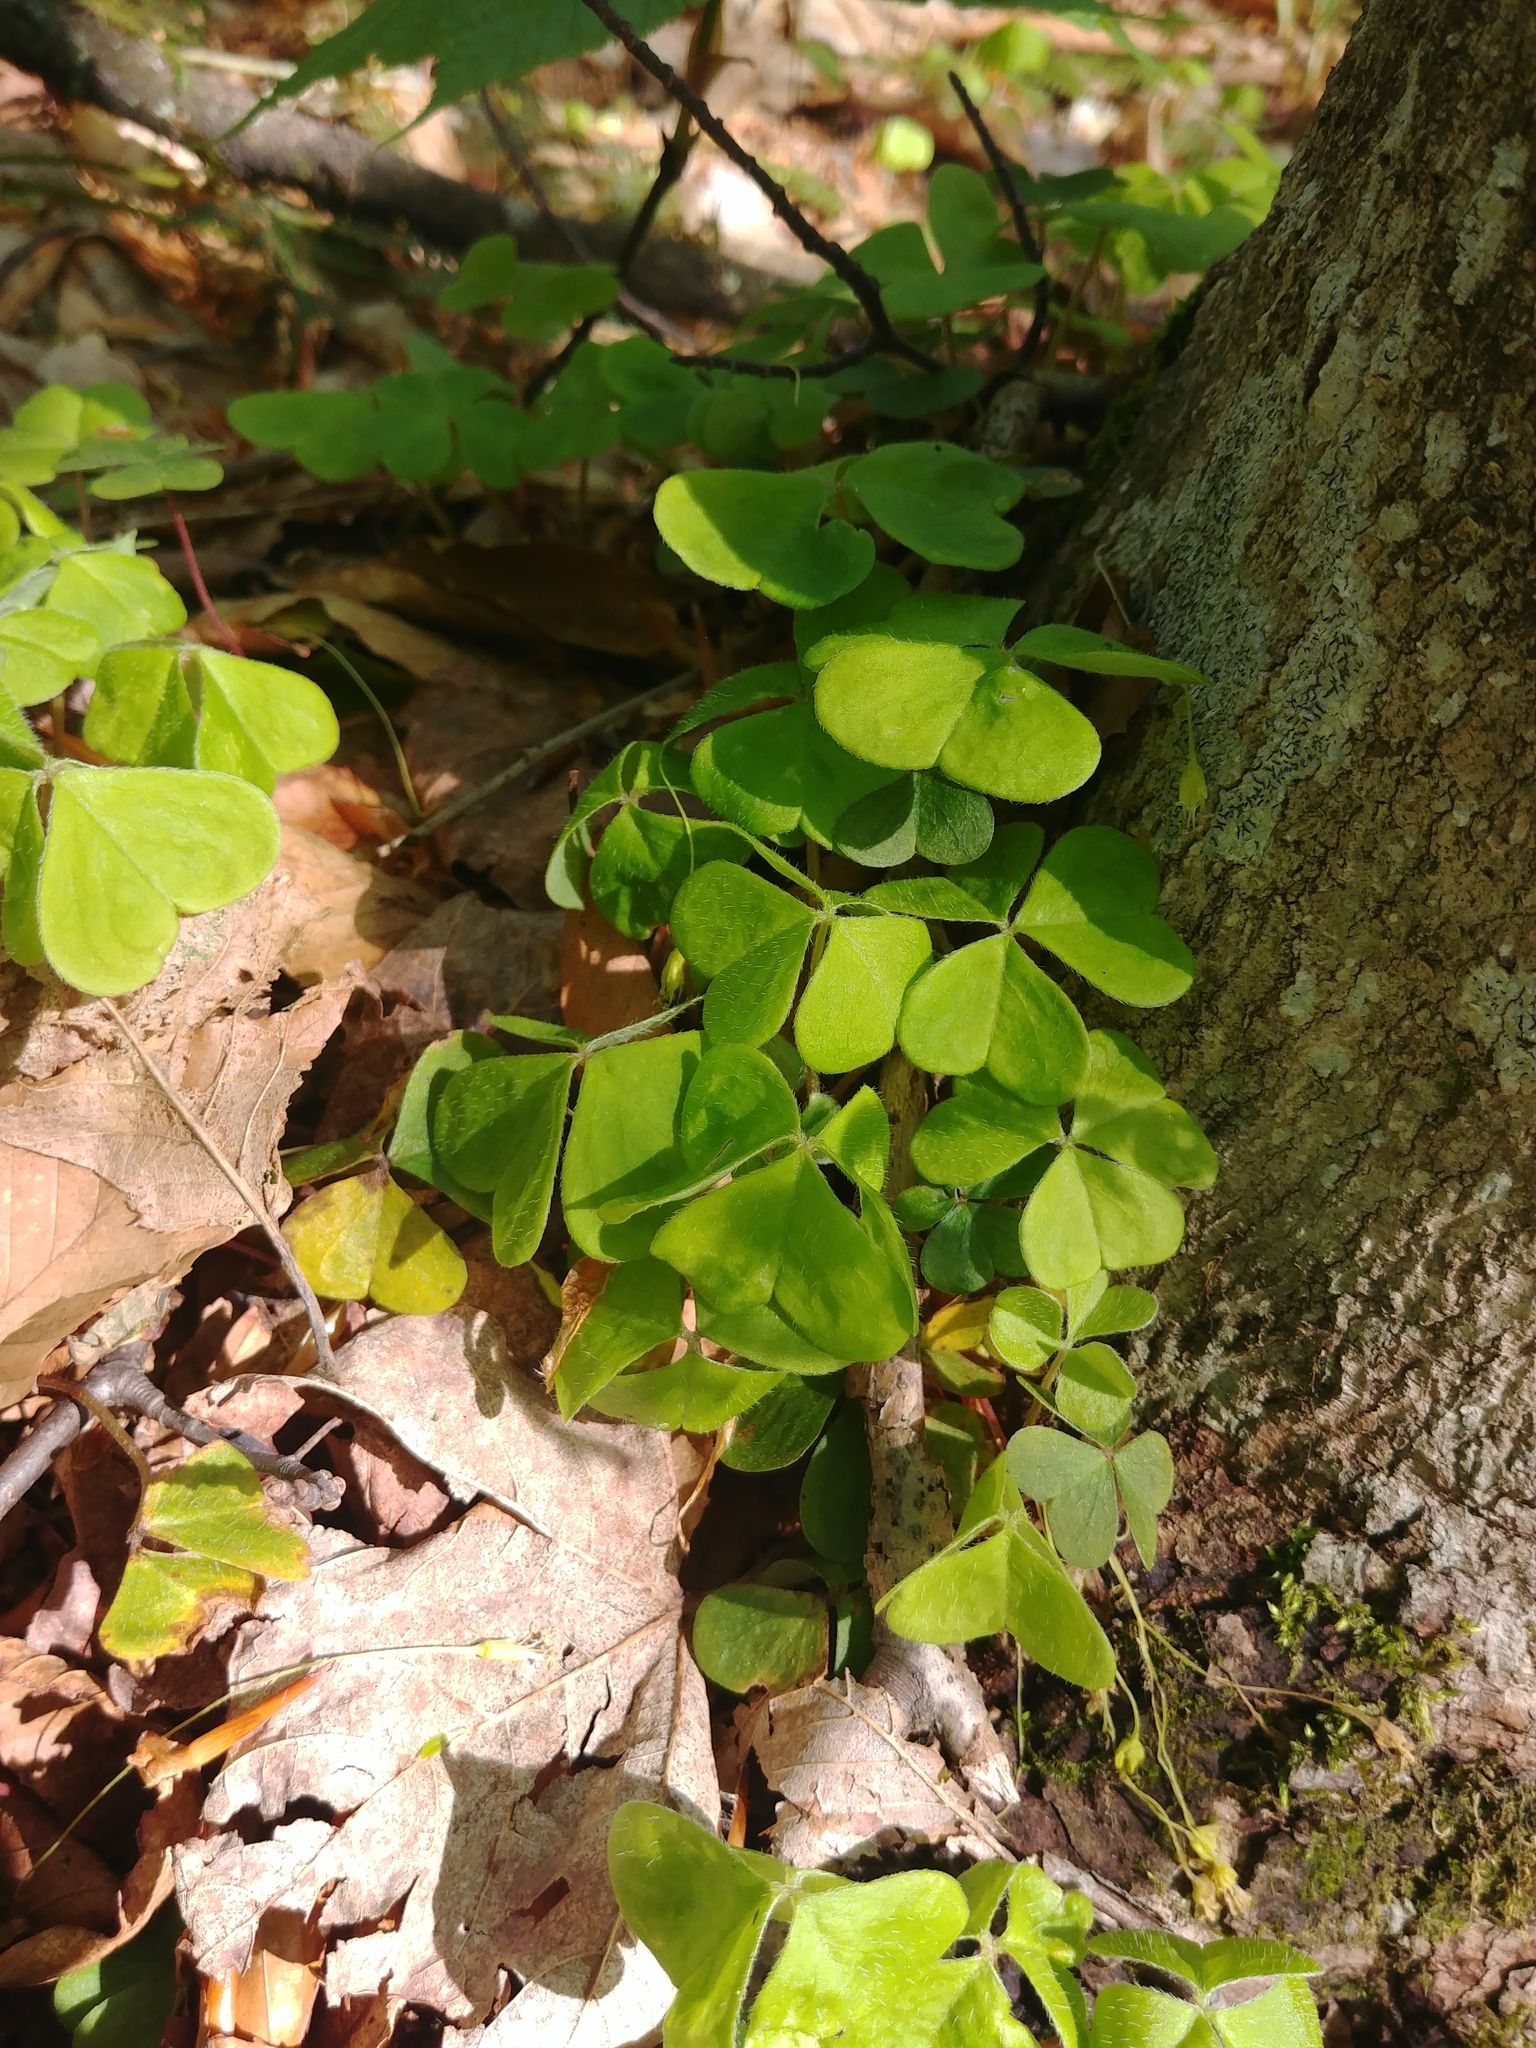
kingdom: Plantae
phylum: Tracheophyta
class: Magnoliopsida
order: Oxalidales
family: Oxalidaceae
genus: Oxalis
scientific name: Oxalis
